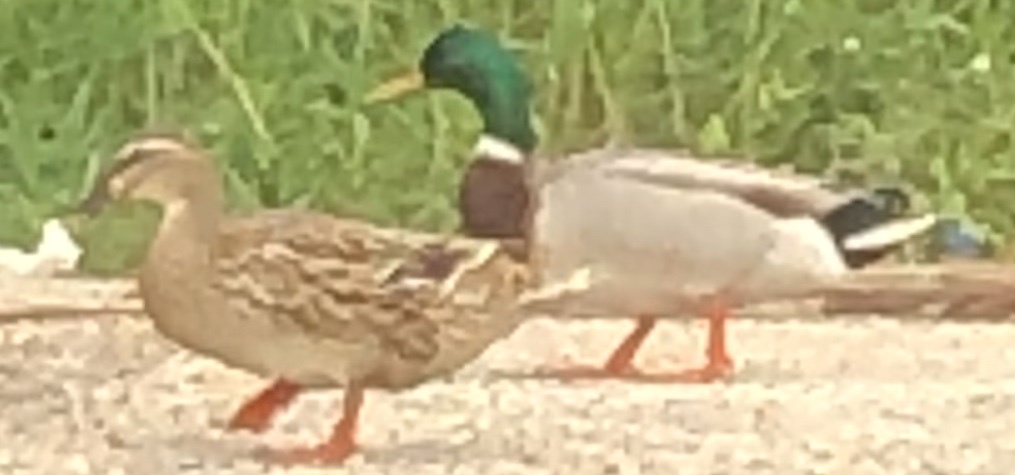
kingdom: Animalia
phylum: Chordata
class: Aves
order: Anseriformes
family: Anatidae
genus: Anas
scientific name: Anas platyrhynchos
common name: Mallard
